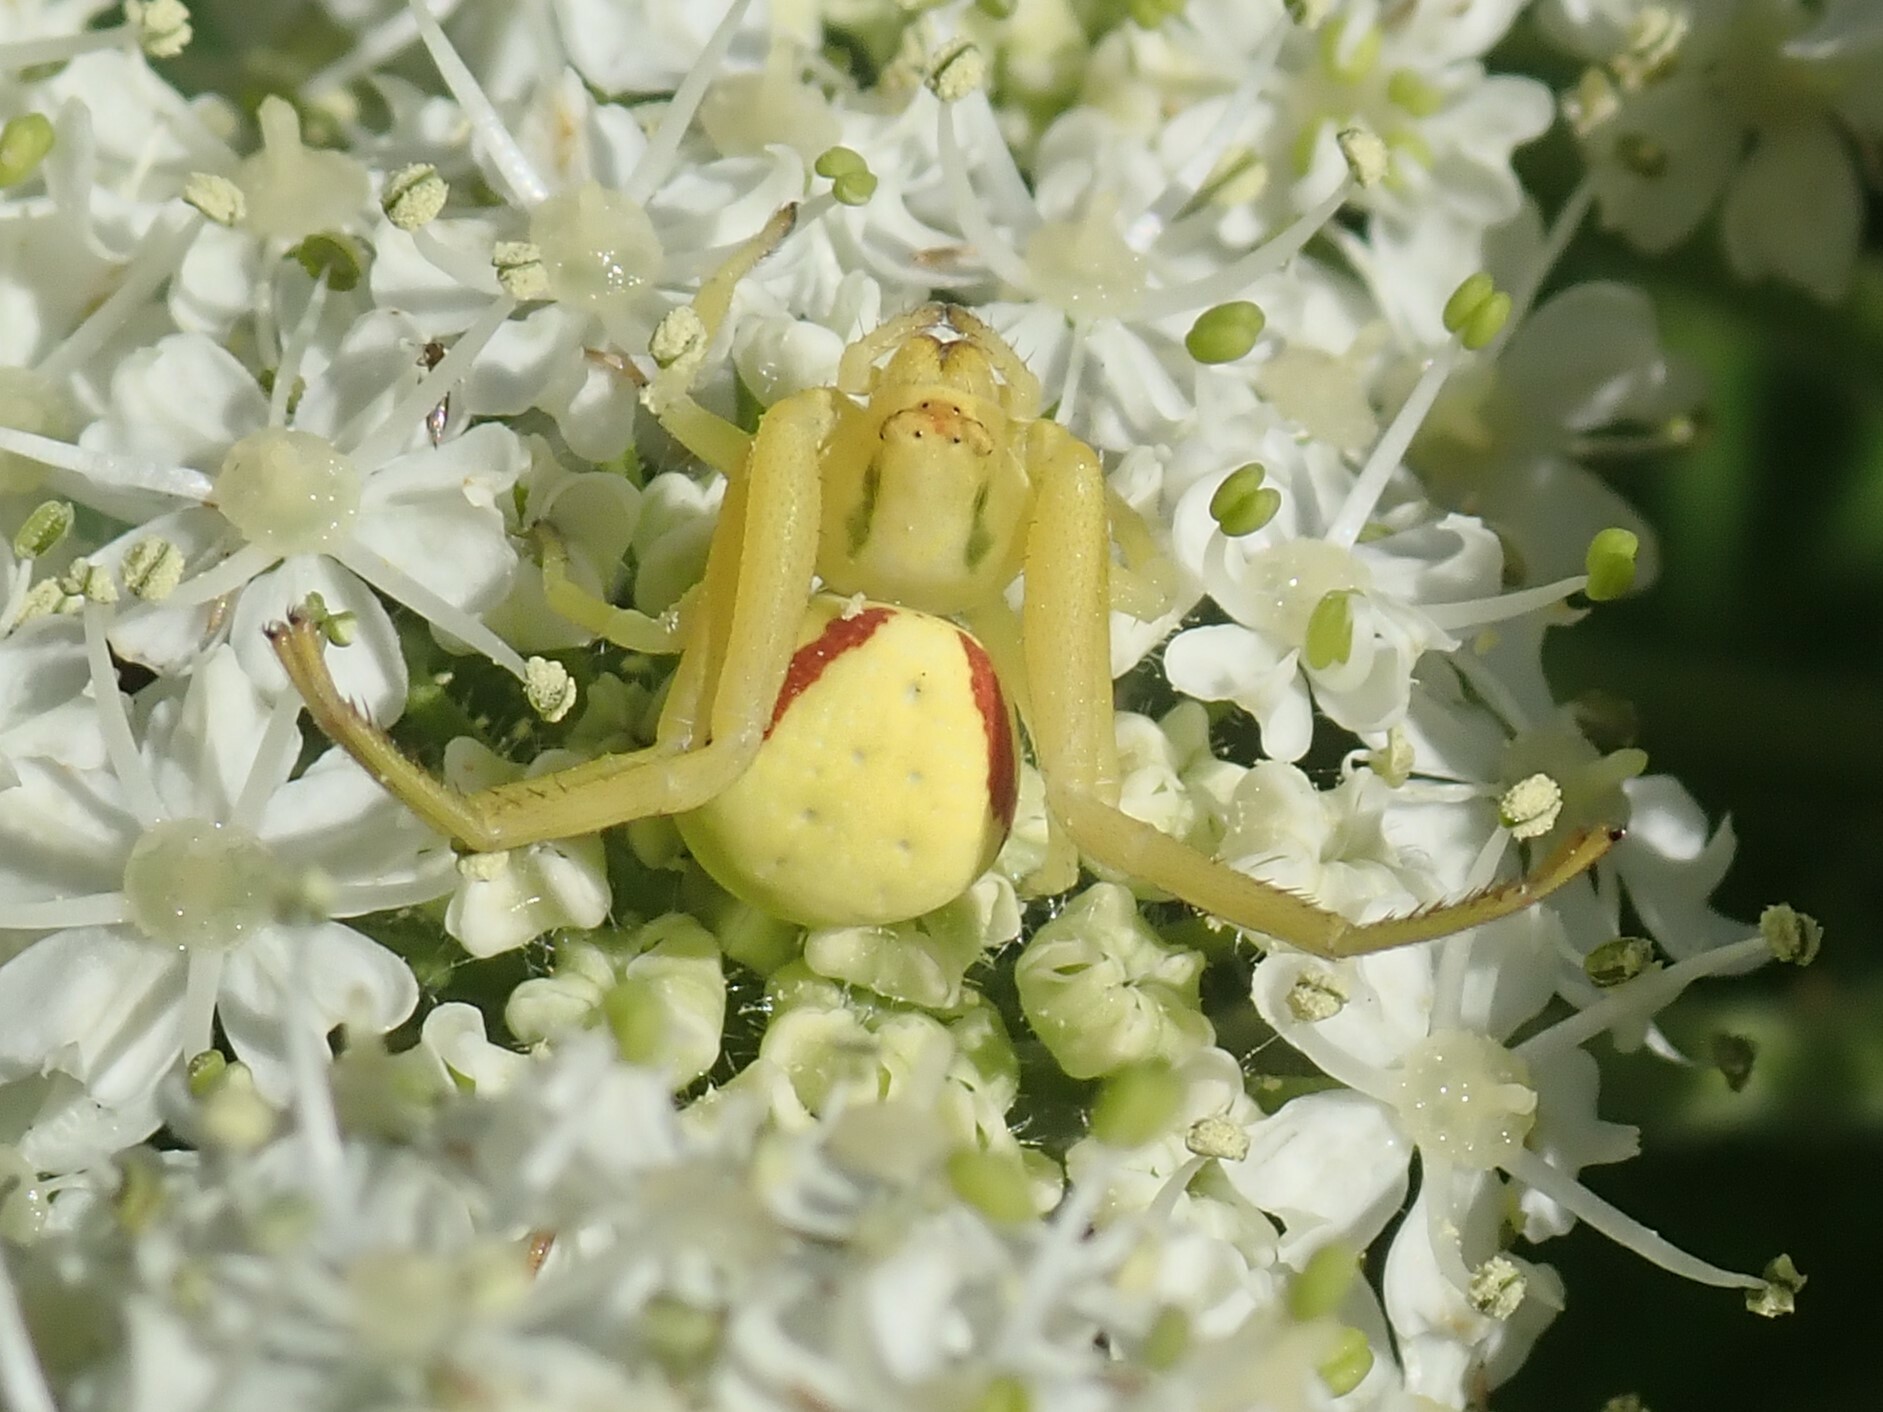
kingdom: Animalia
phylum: Arthropoda
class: Arachnida
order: Araneae
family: Thomisidae
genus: Misumena
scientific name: Misumena vatia
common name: Goldenrod crab spider
